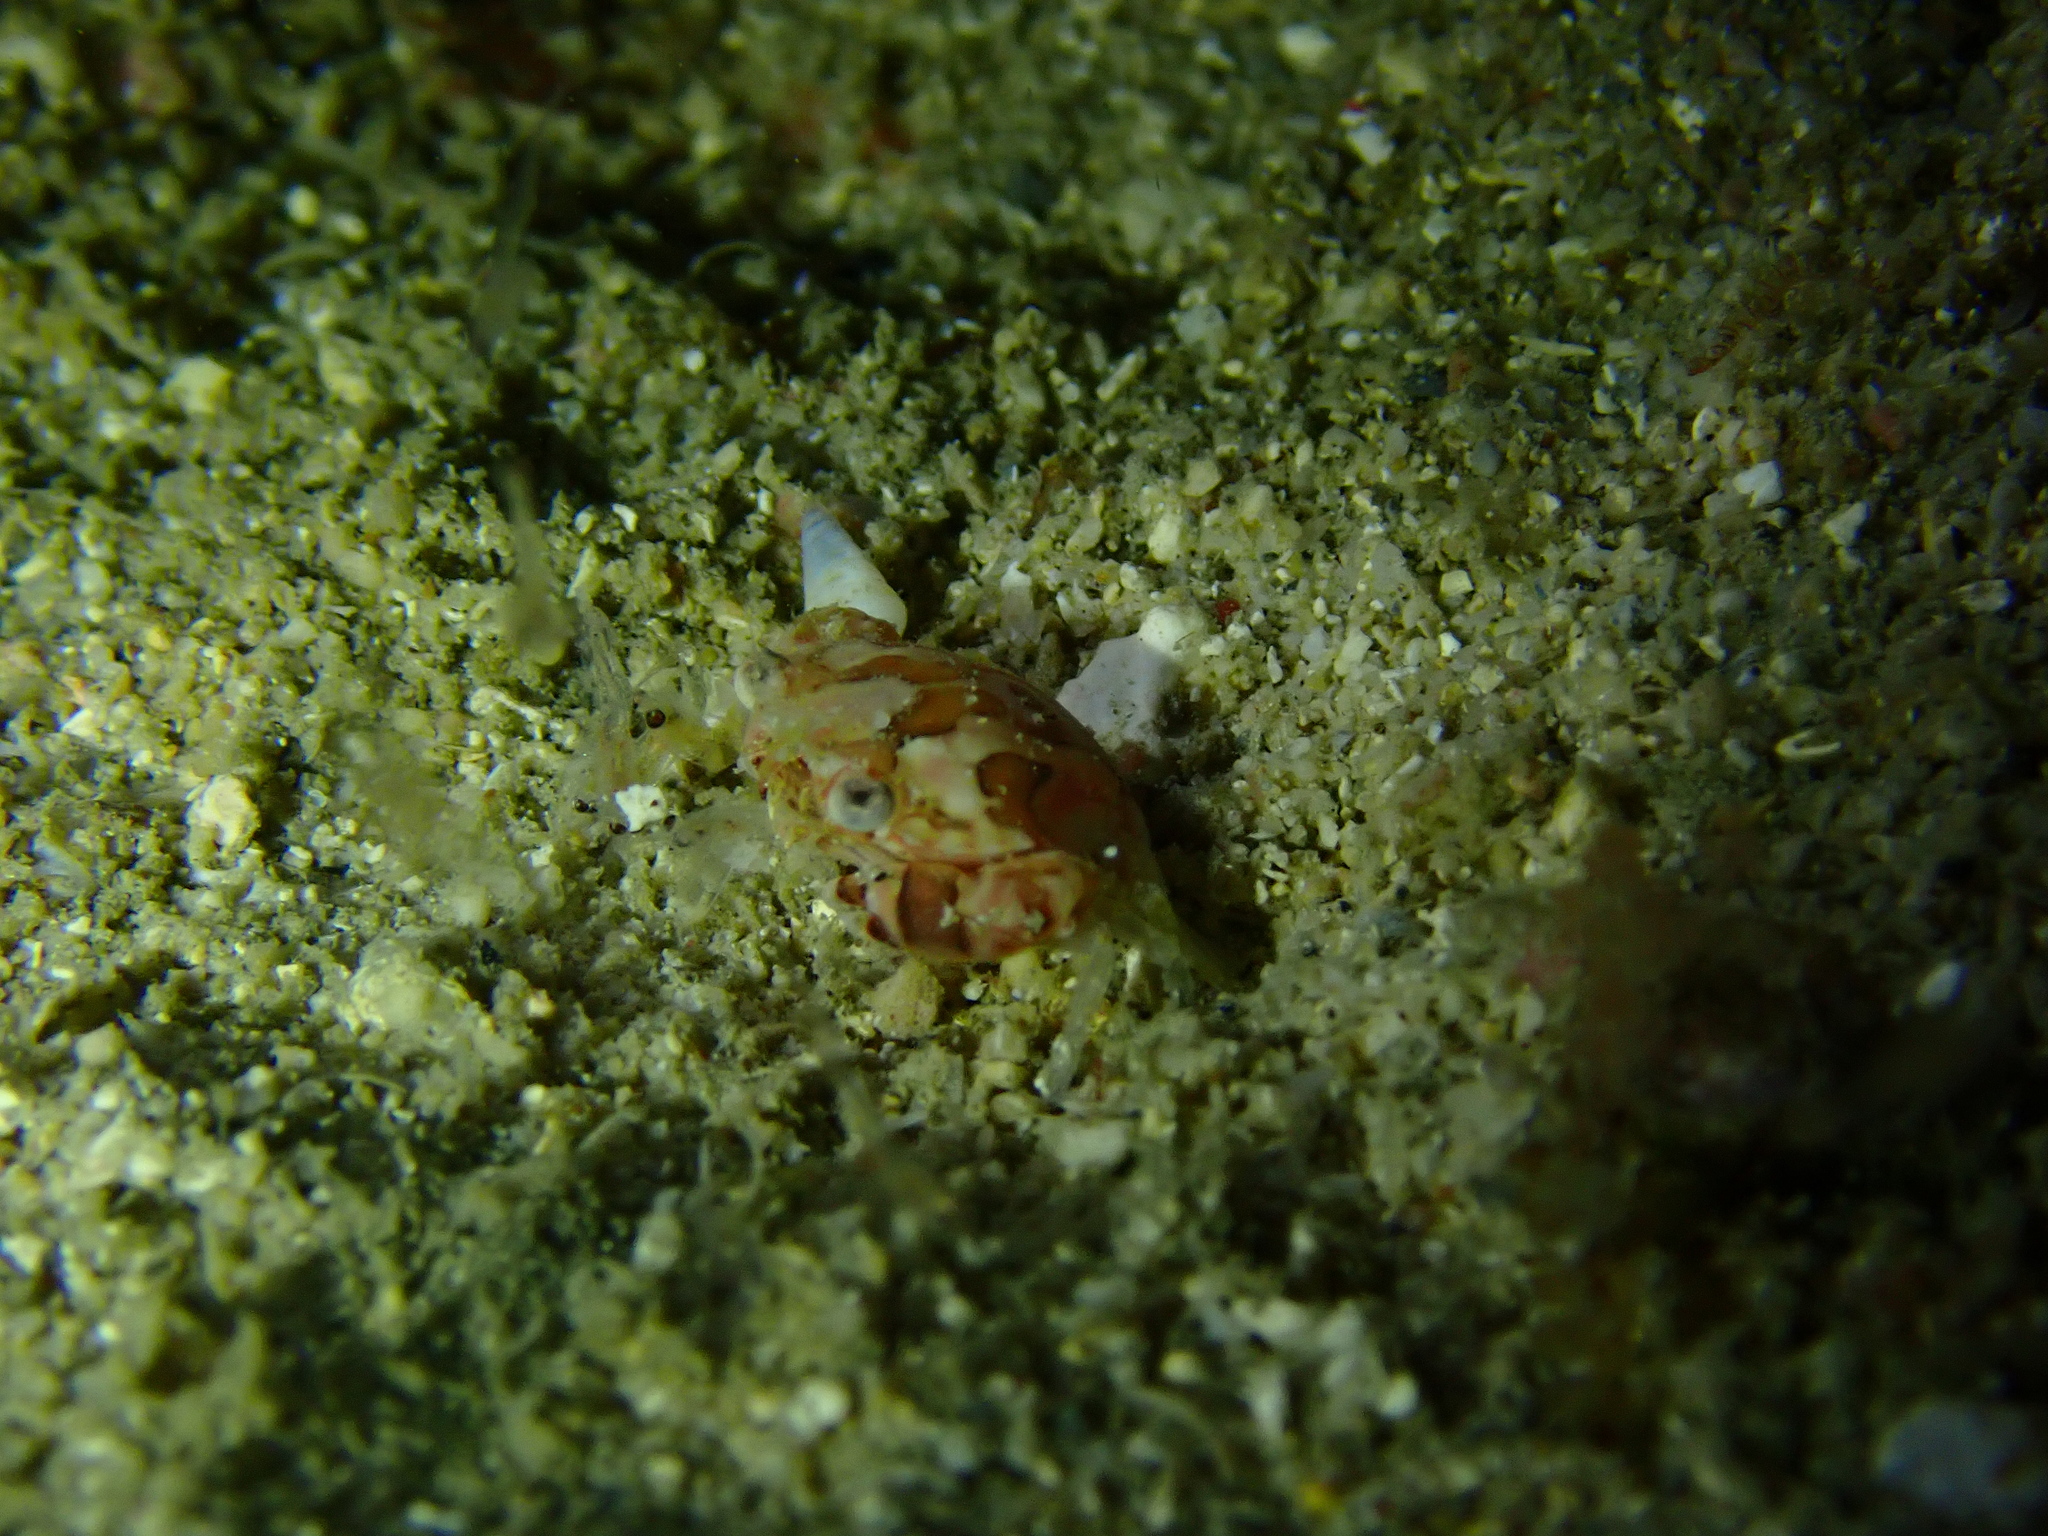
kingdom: Animalia
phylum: Arthropoda
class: Malacostraca
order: Decapoda
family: Portunidae
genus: Lissocarcinus
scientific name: Lissocarcinus laevis
